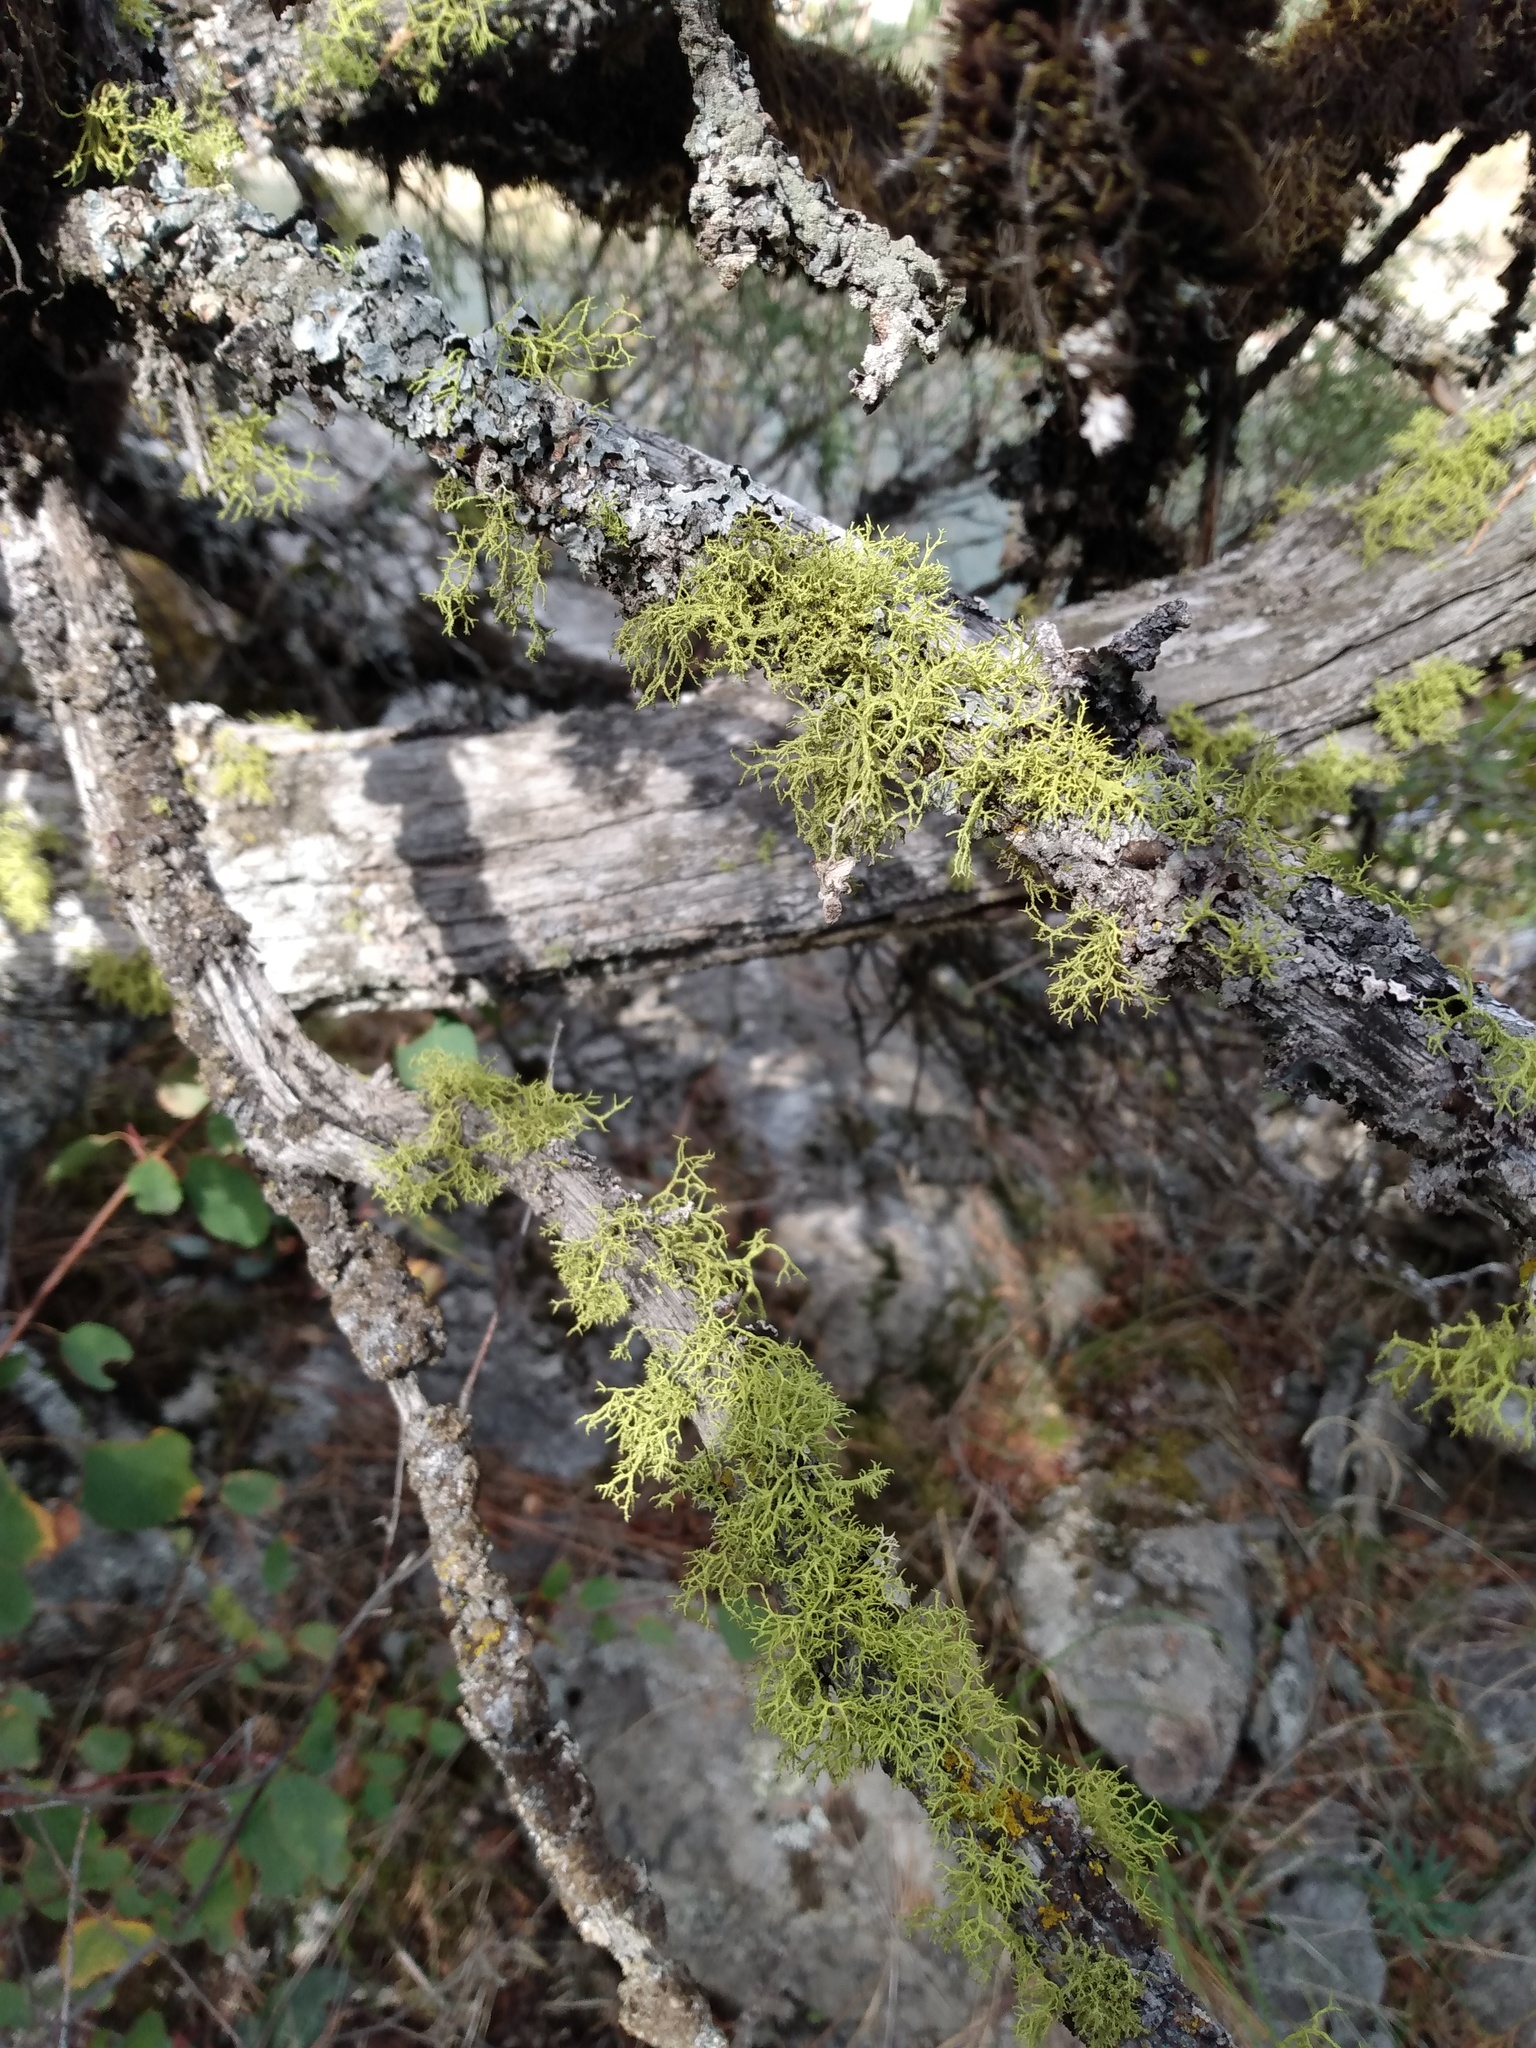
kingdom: Fungi
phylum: Ascomycota
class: Lecanoromycetes
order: Lecanorales
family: Parmeliaceae
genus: Letharia
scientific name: Letharia vulpina
